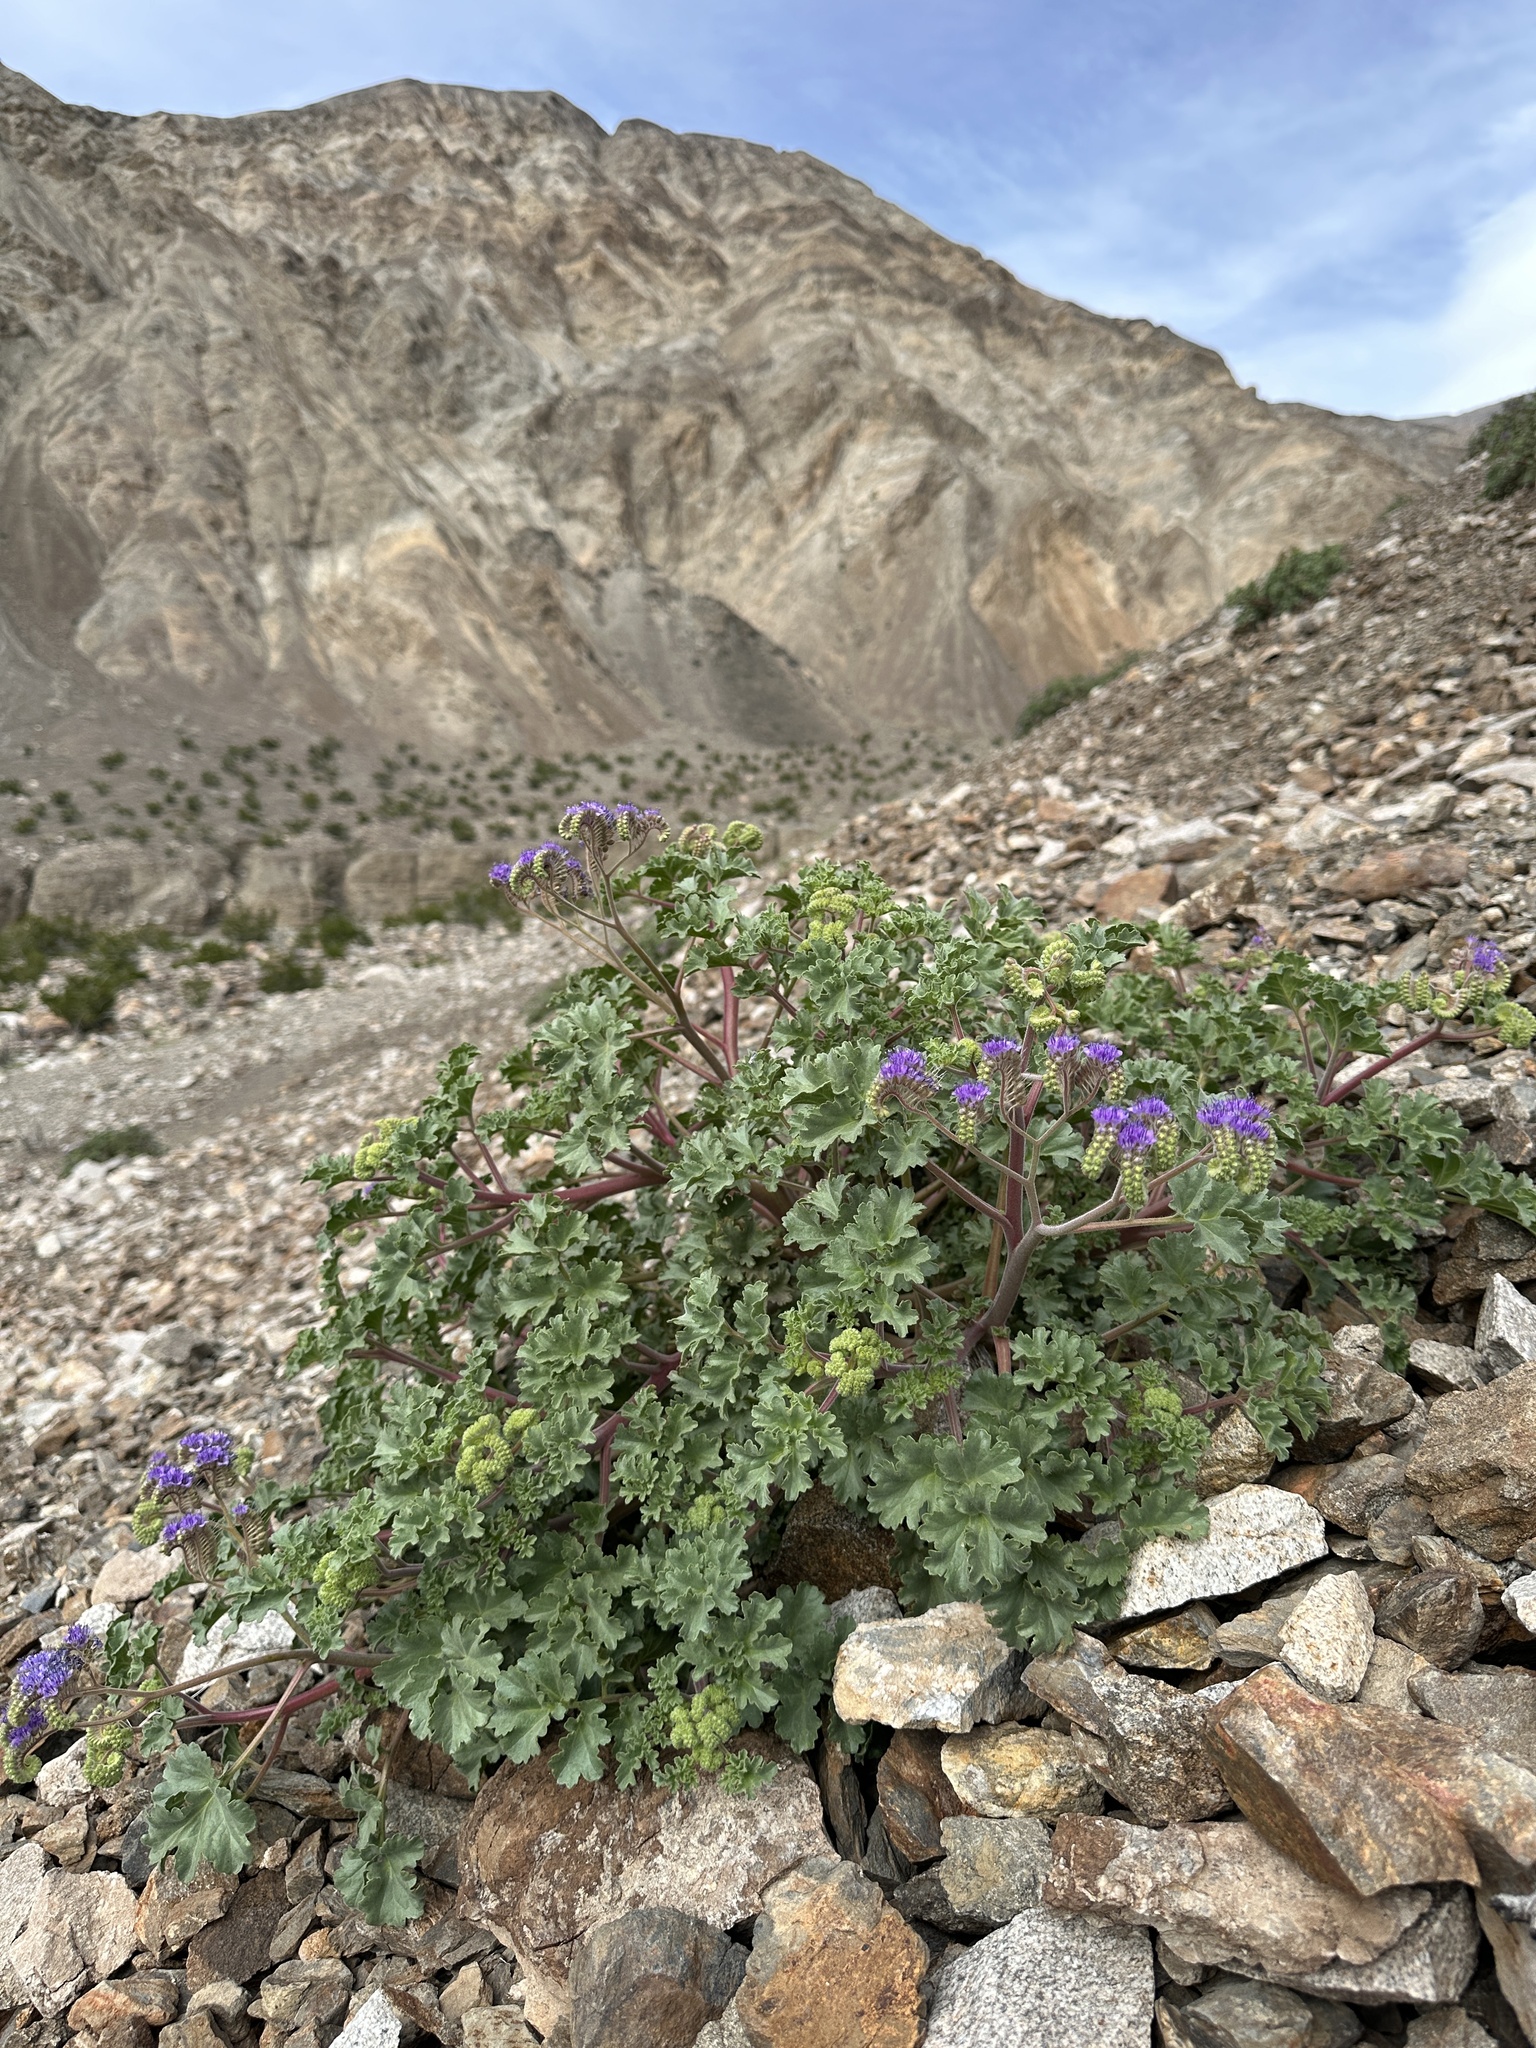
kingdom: Plantae
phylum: Tracheophyta
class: Magnoliopsida
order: Boraginales
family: Hydrophyllaceae
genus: Phacelia
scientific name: Phacelia pedicellata
